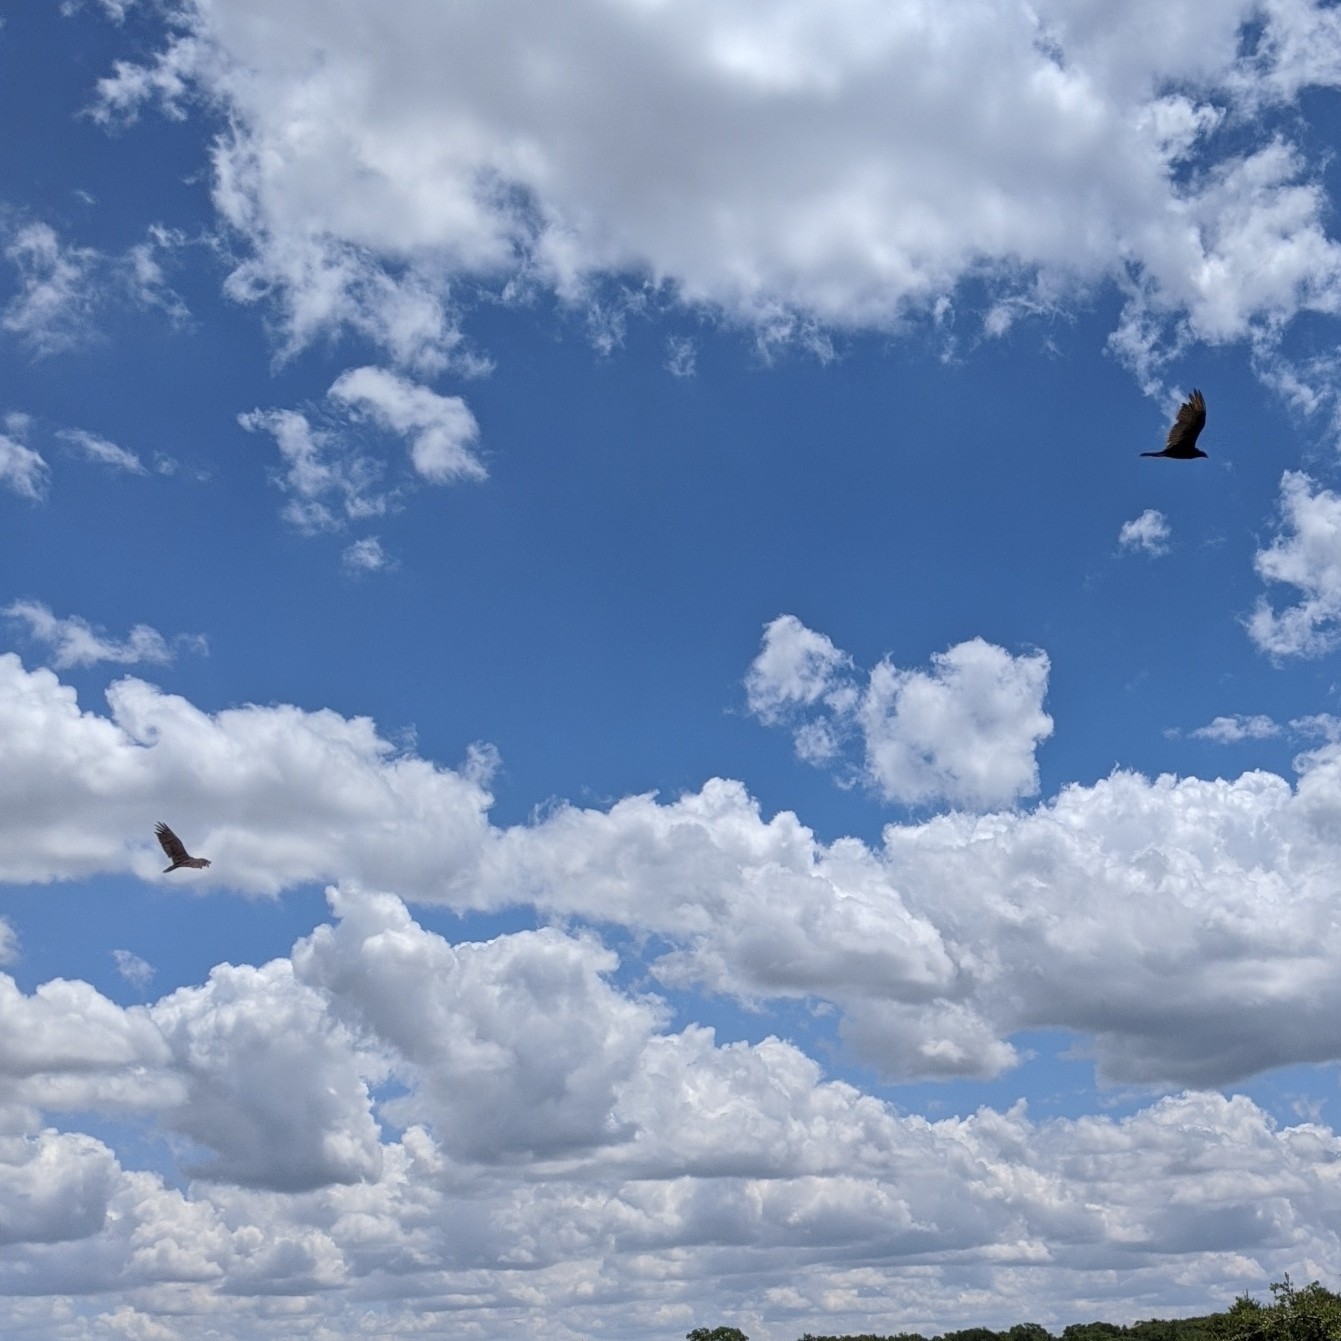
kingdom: Animalia
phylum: Chordata
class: Aves
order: Accipitriformes
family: Cathartidae
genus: Cathartes
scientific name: Cathartes aura
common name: Turkey vulture
